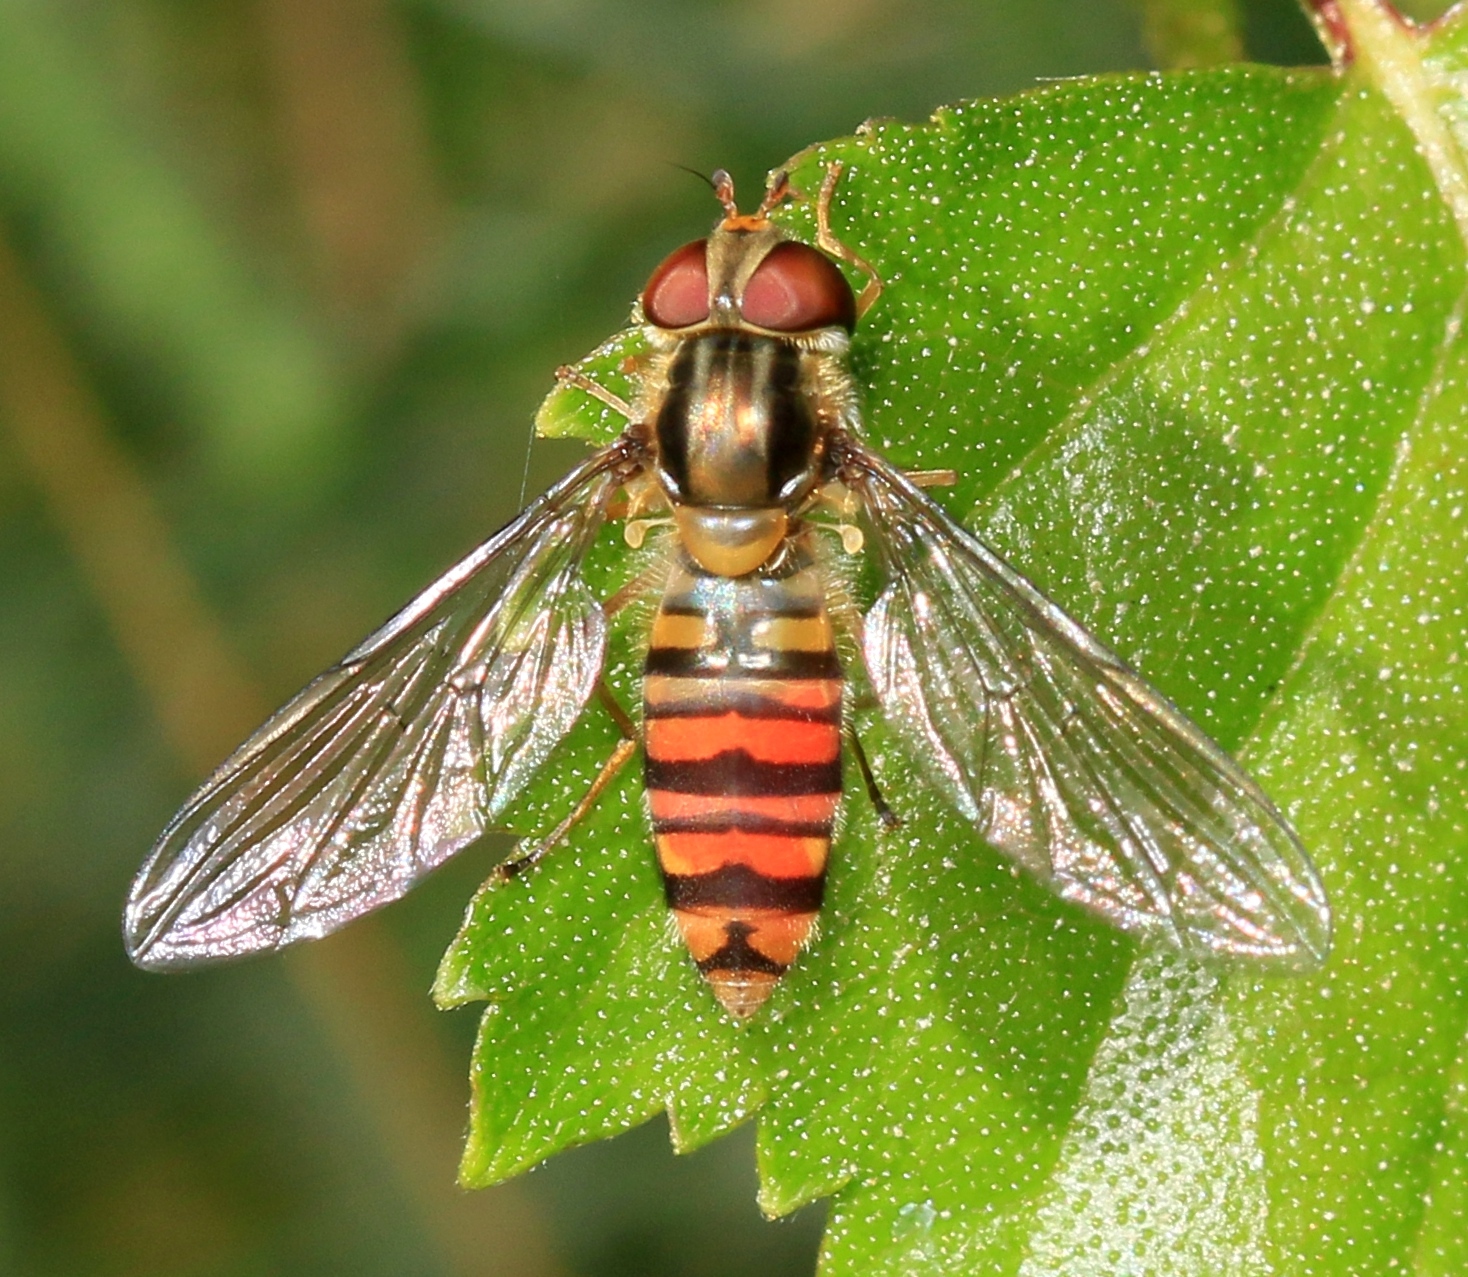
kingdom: Animalia
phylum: Arthropoda
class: Insecta
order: Diptera
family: Syrphidae
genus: Episyrphus
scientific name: Episyrphus balteatus
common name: Marmalade hoverfly
